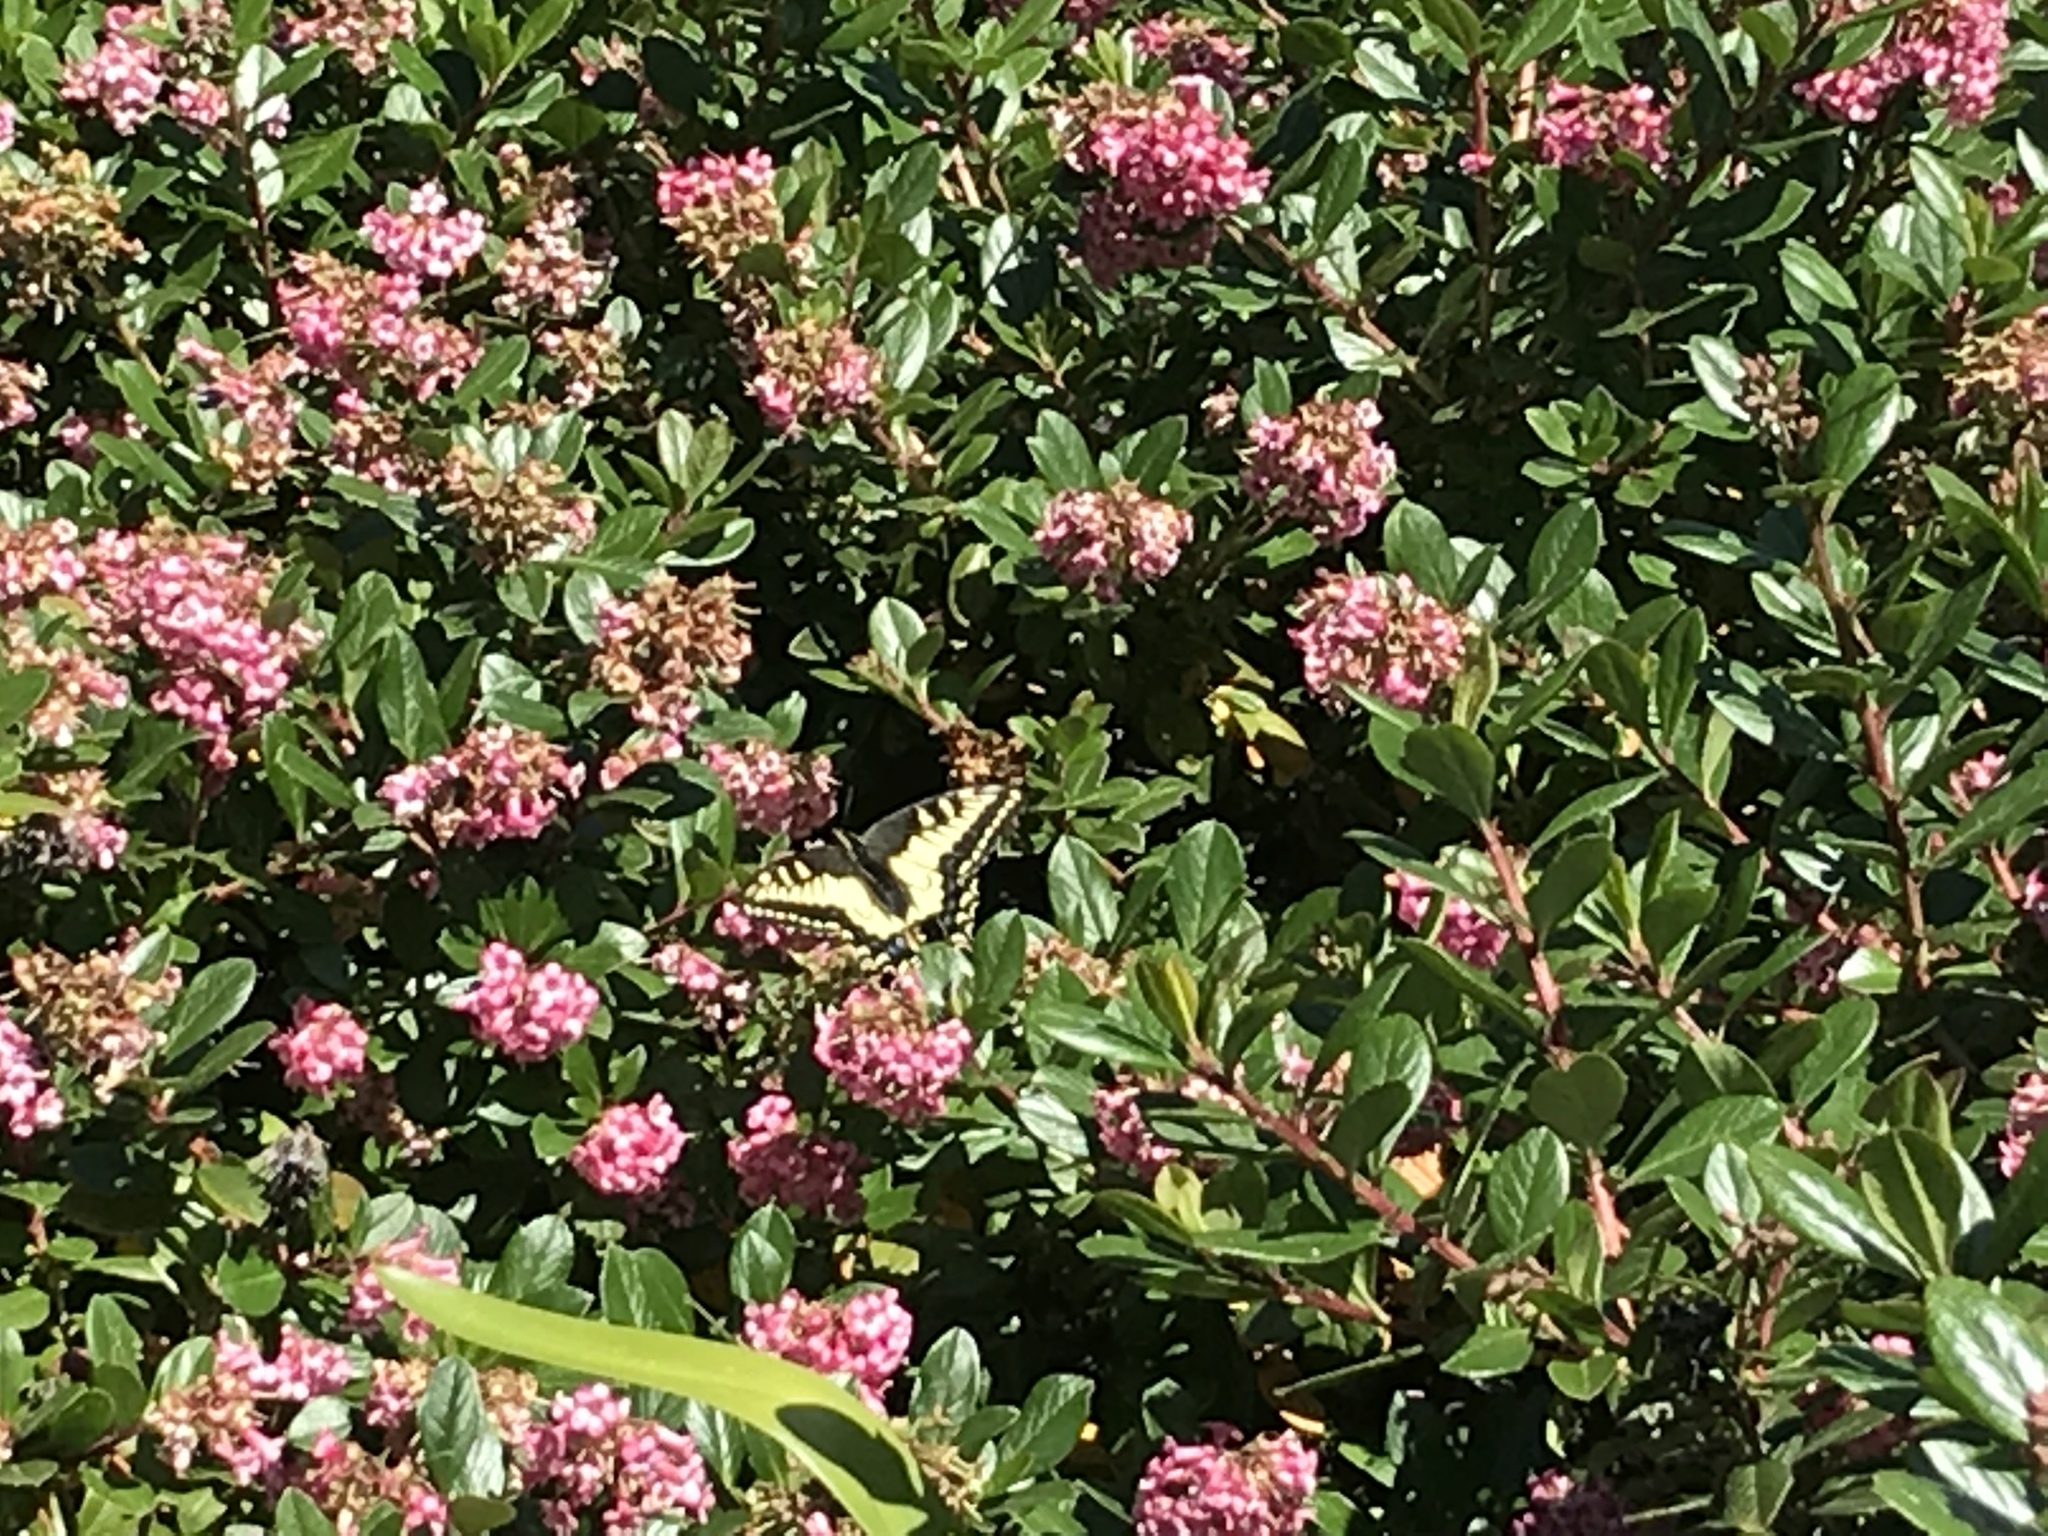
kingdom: Animalia
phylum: Arthropoda
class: Insecta
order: Lepidoptera
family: Papilionidae
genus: Papilio
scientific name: Papilio zelicaon
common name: Anise swallowtail
